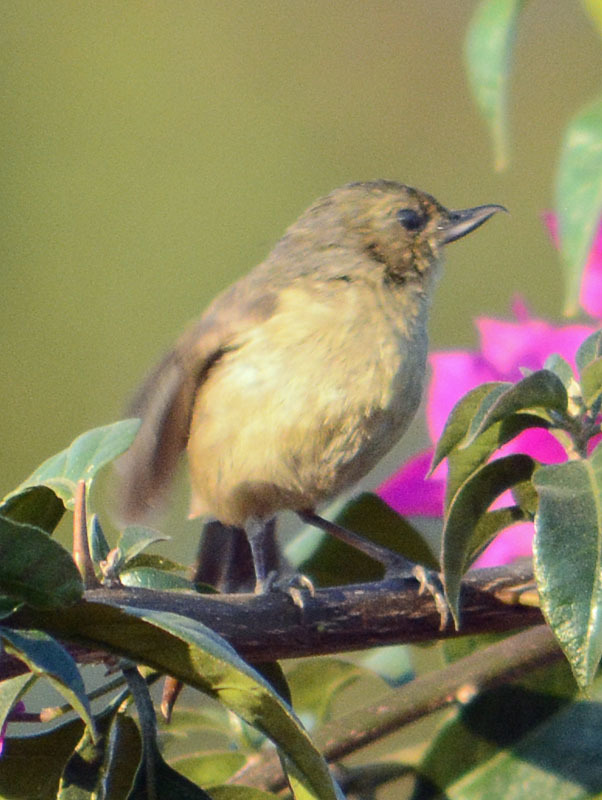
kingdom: Animalia
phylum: Chordata
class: Aves
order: Passeriformes
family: Thraupidae
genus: Diglossa
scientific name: Diglossa baritula
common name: Cinnamon-bellied flowerpiercer
